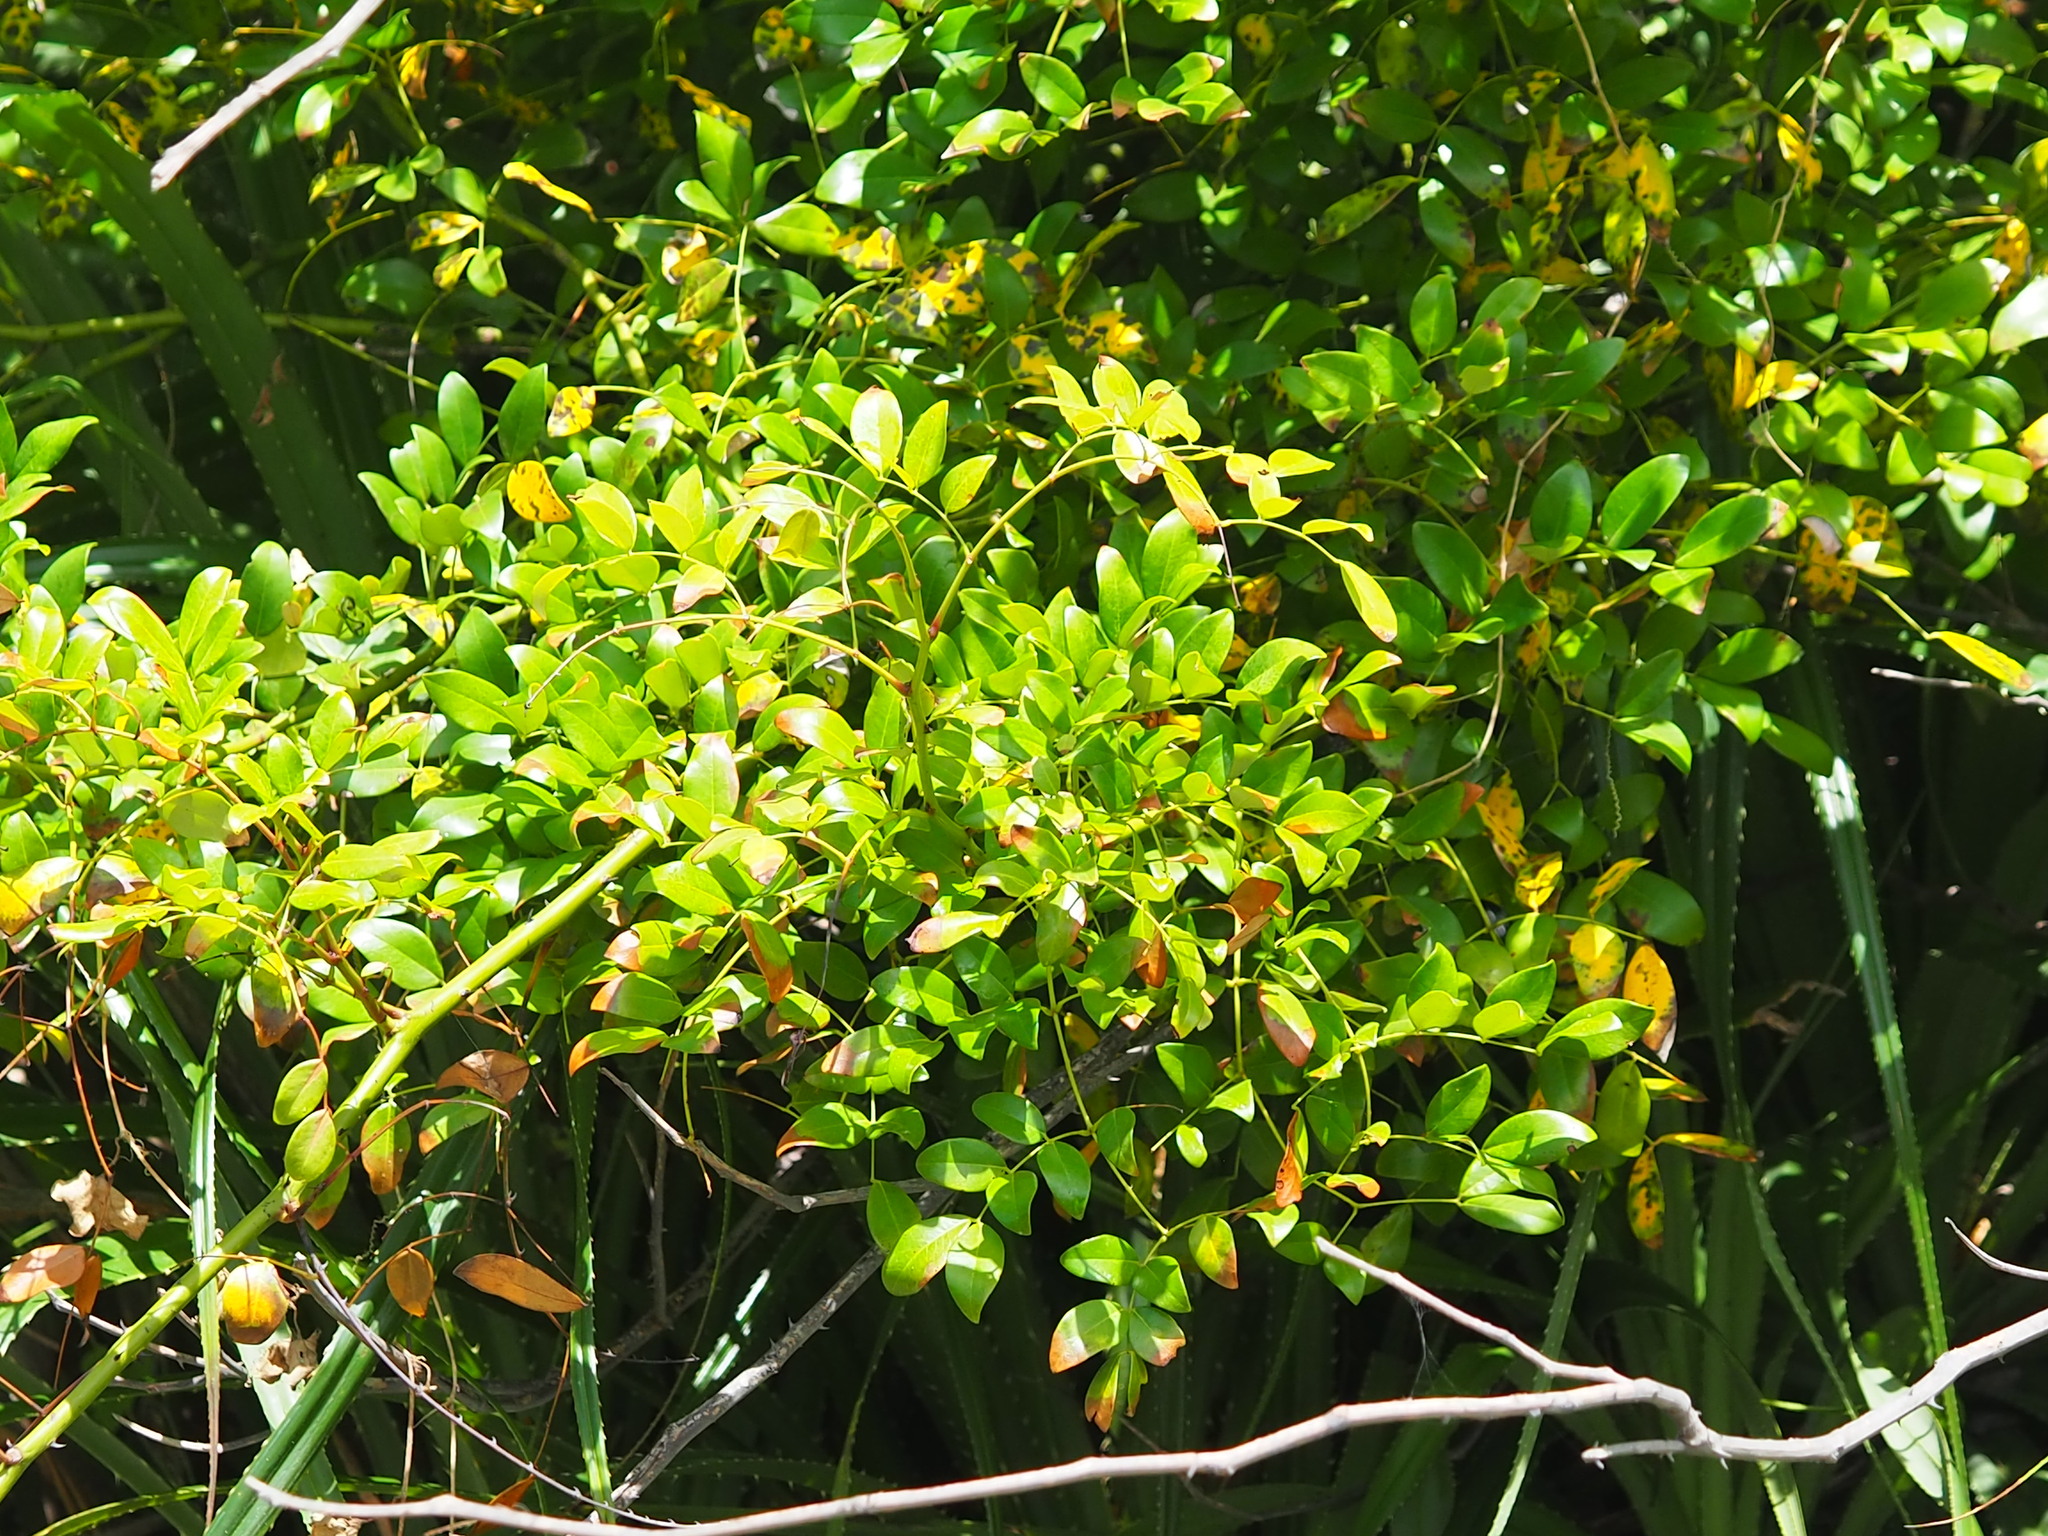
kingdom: Plantae
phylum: Tracheophyta
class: Magnoliopsida
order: Fabales
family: Fabaceae
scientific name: Fabaceae
